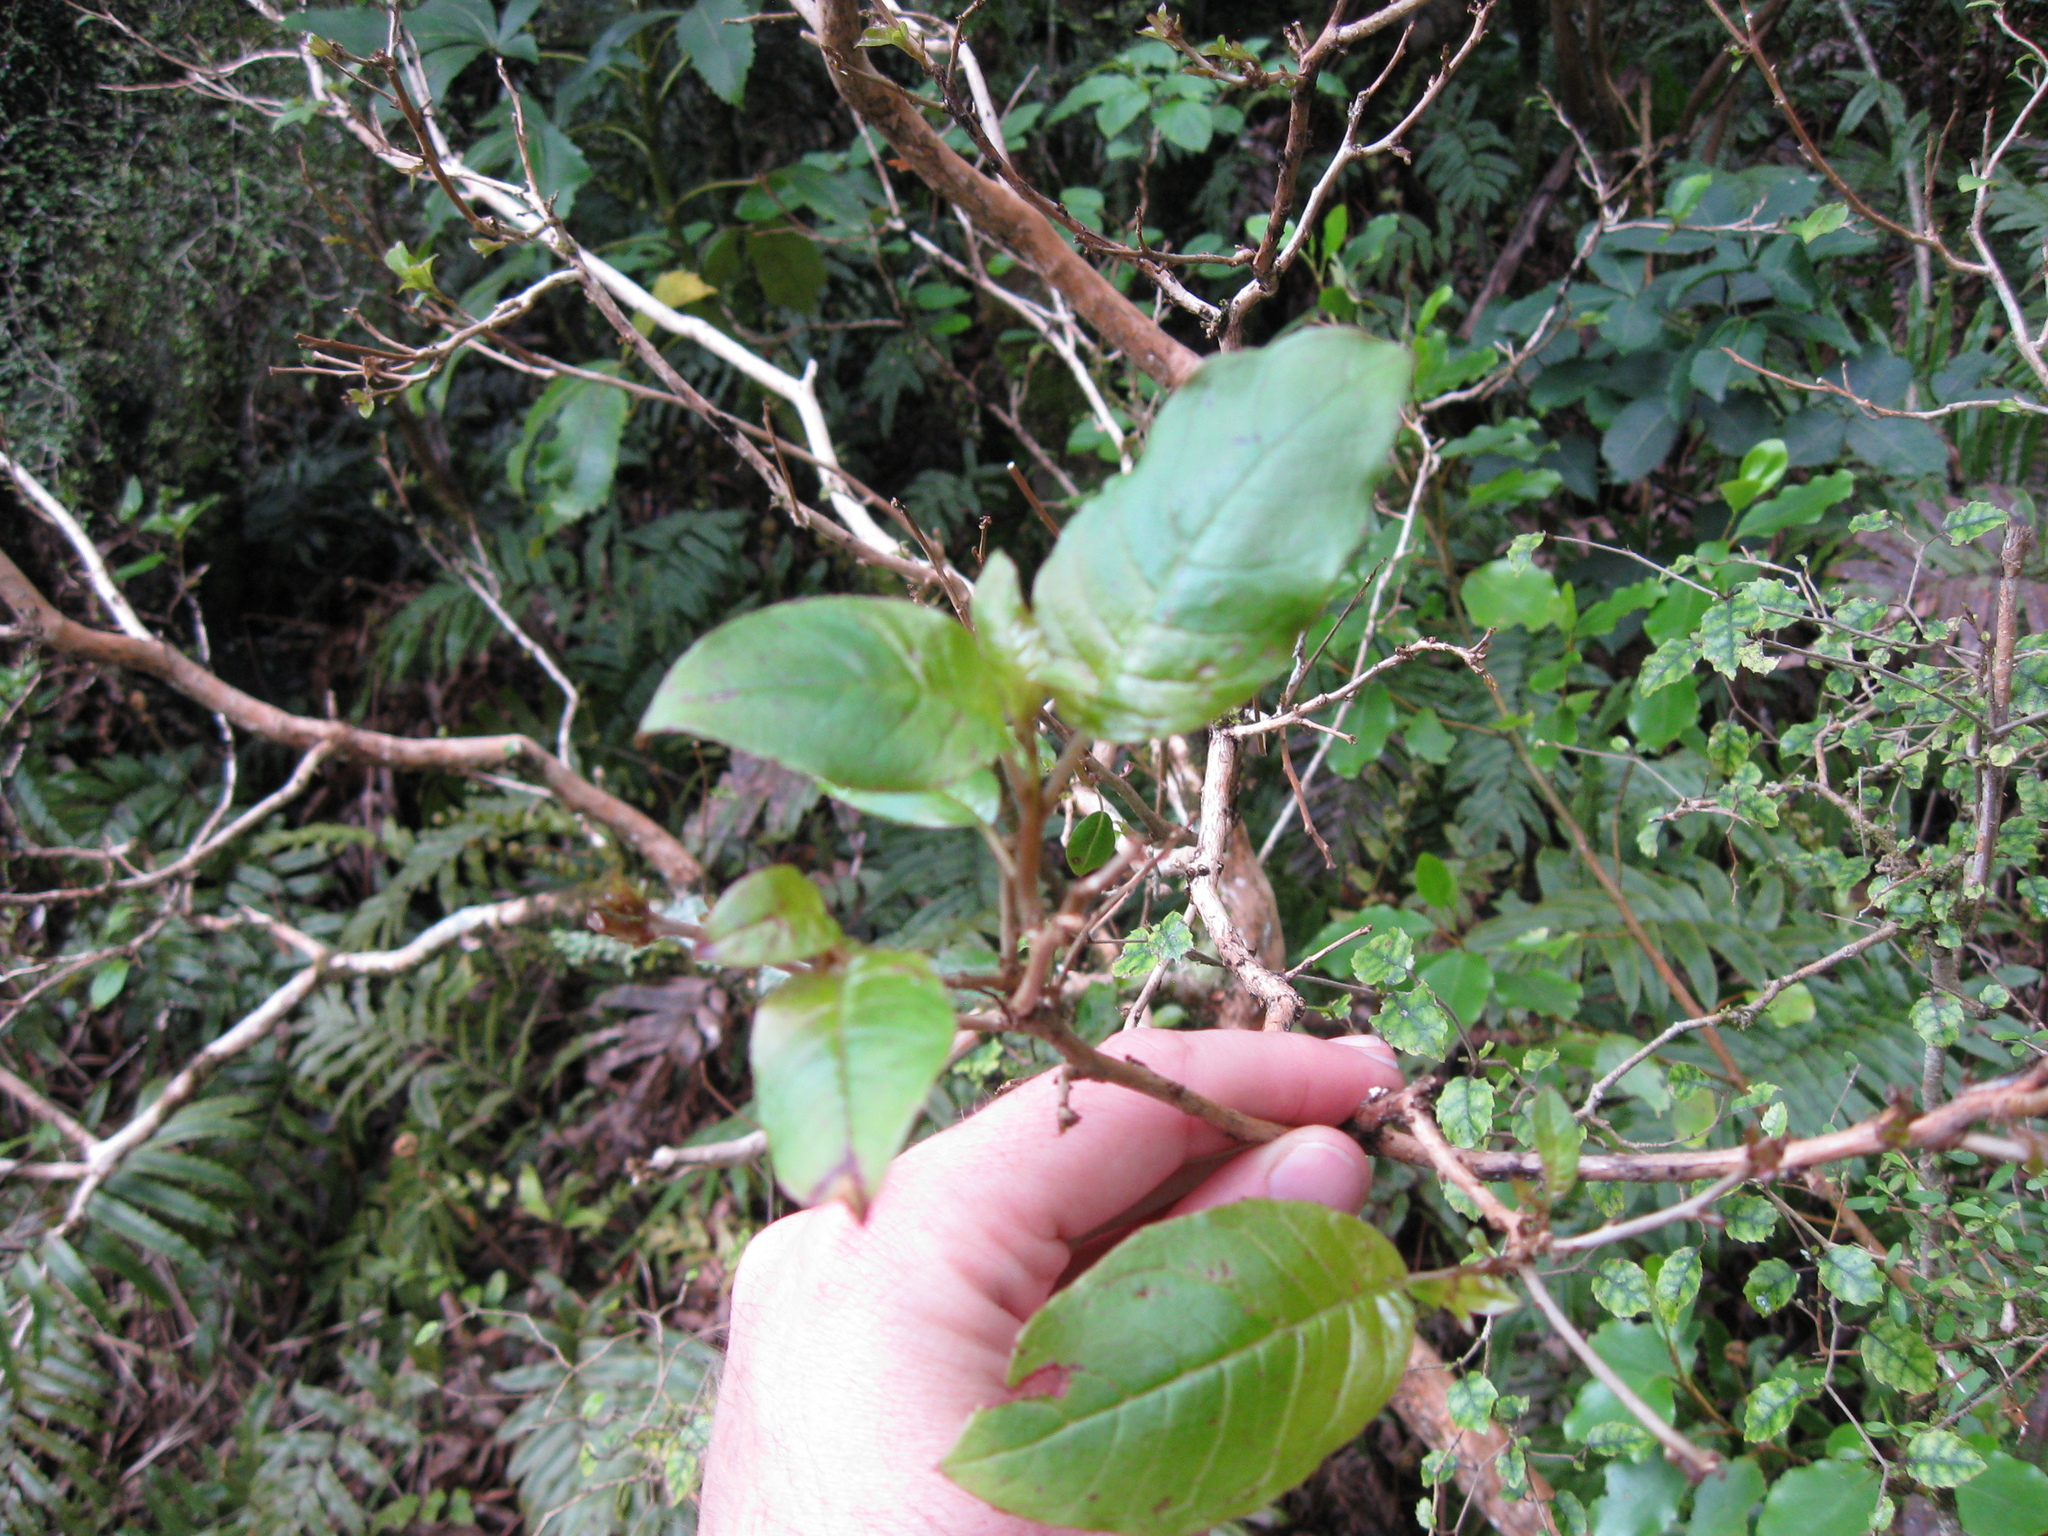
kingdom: Plantae
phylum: Tracheophyta
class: Magnoliopsida
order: Myrtales
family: Onagraceae
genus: Fuchsia
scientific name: Fuchsia excorticata
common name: Tree fuchsia
